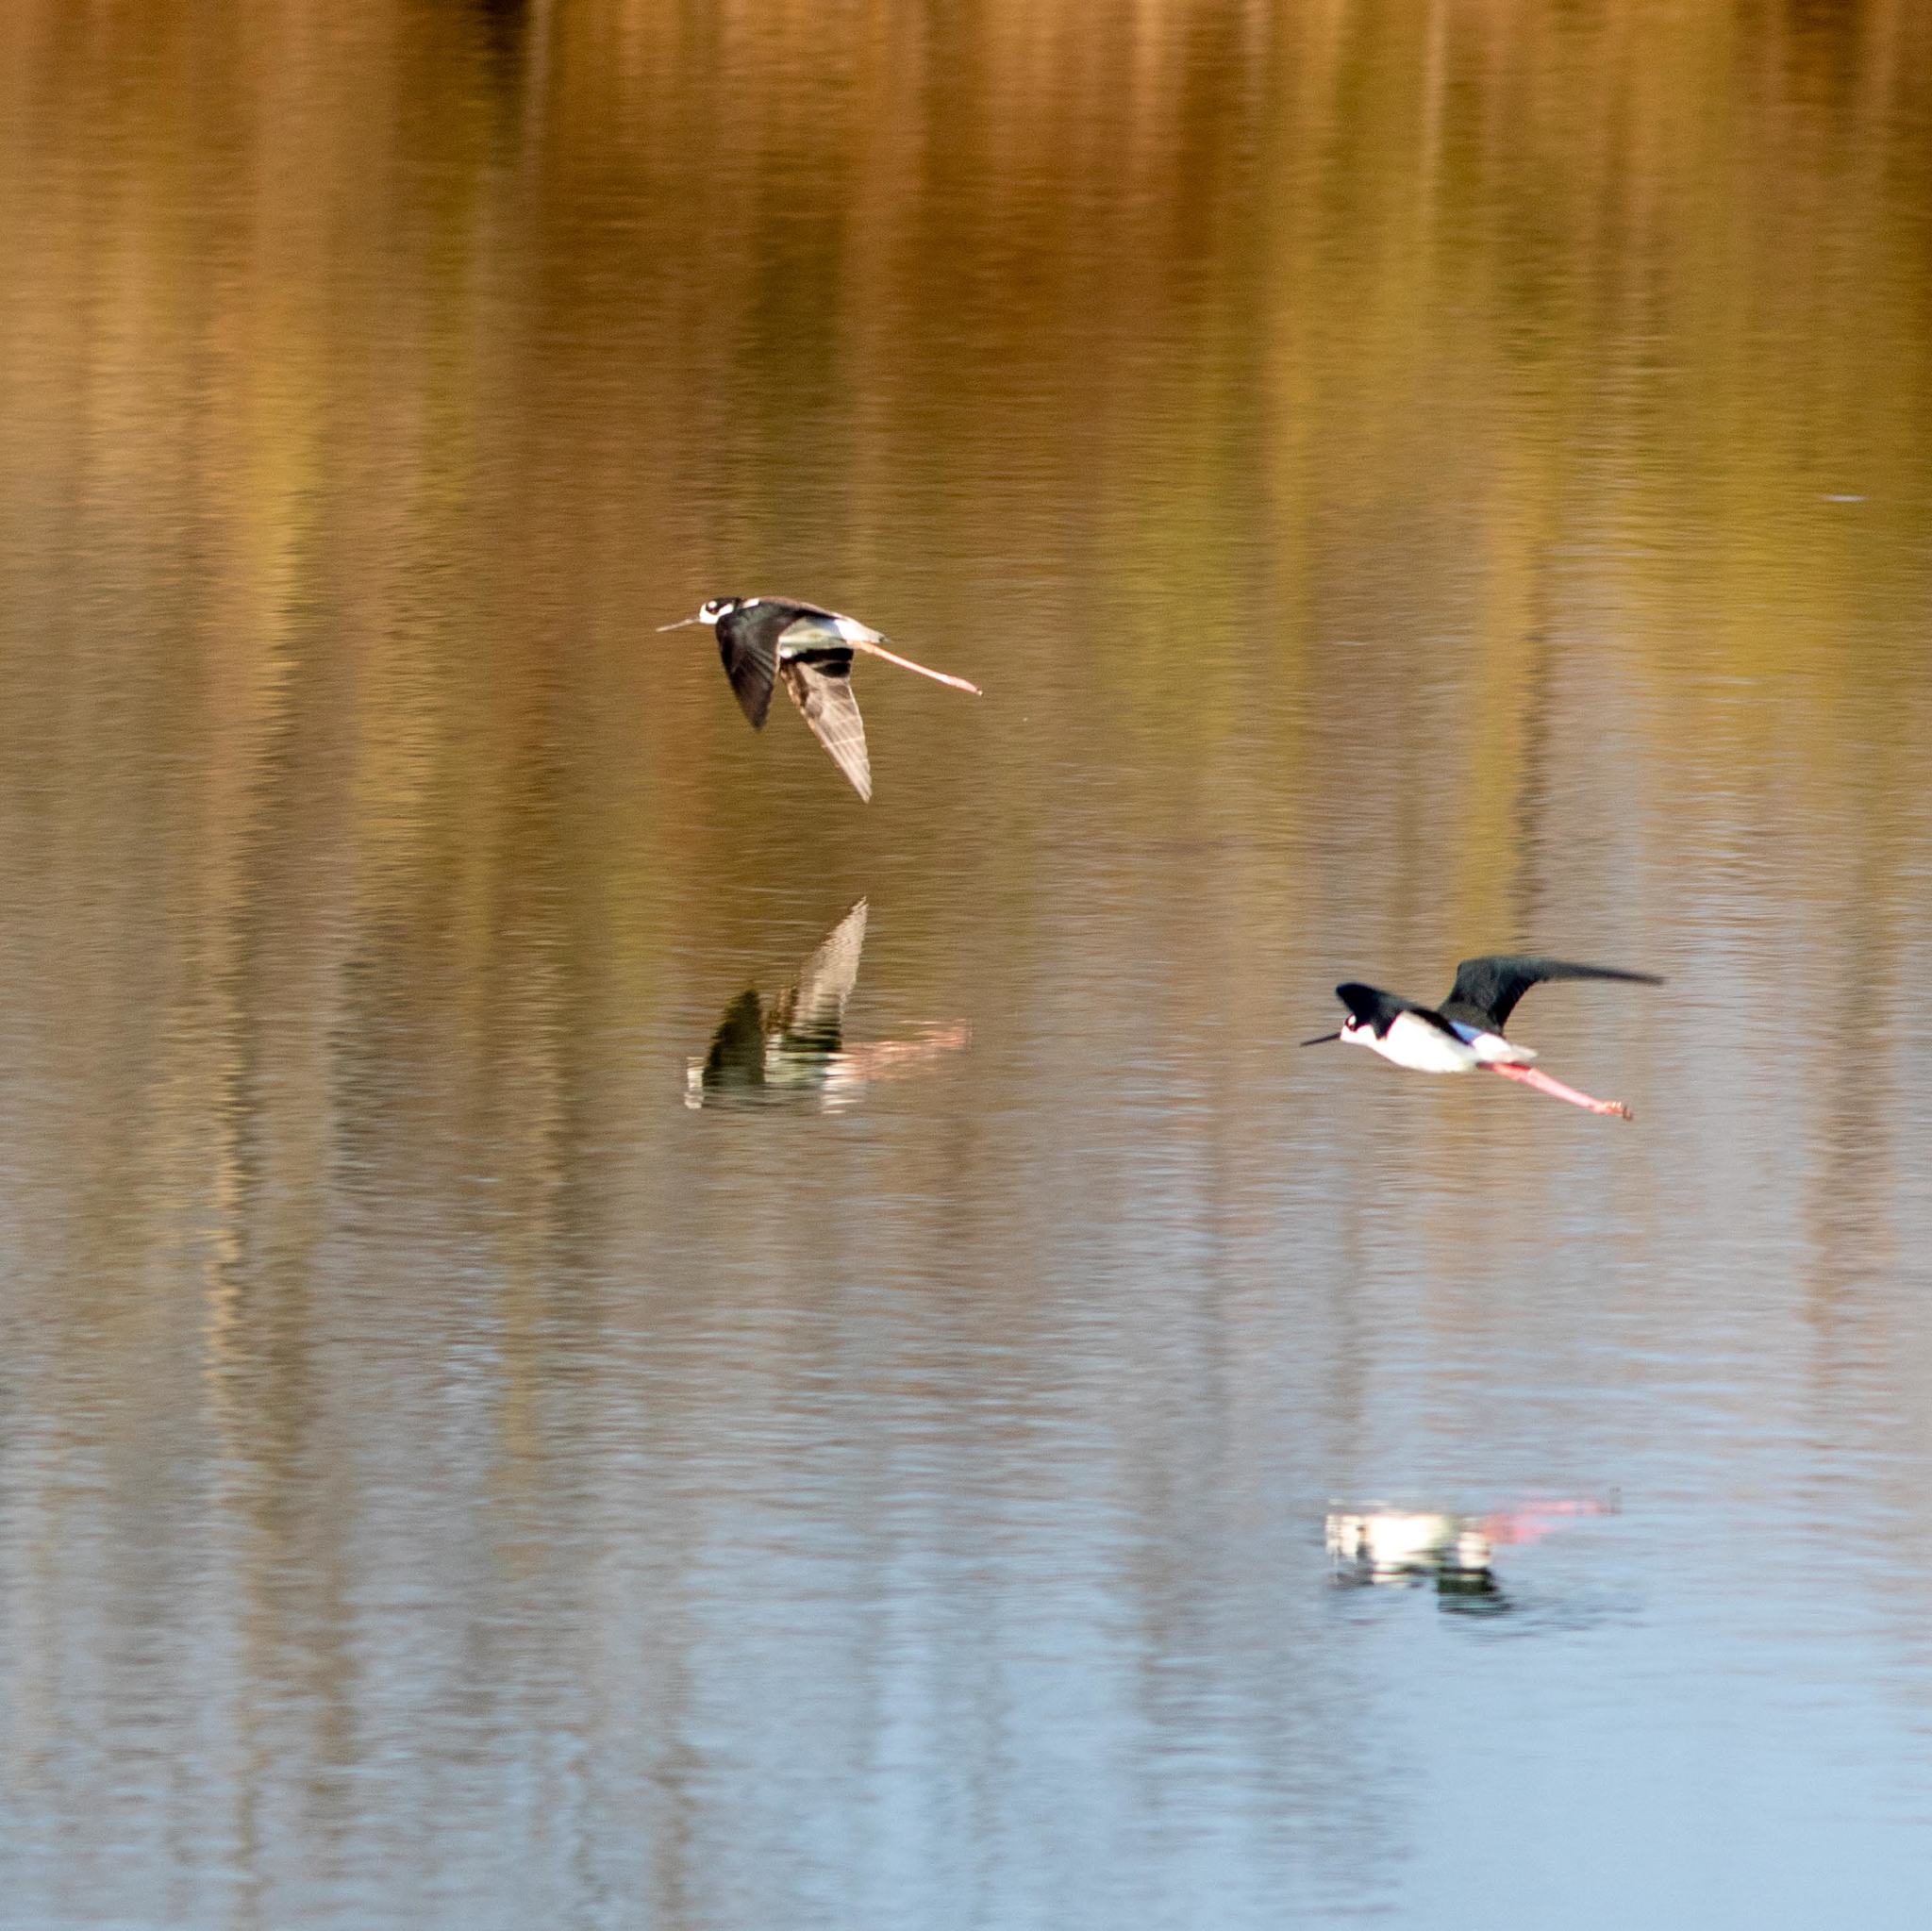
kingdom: Animalia
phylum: Chordata
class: Aves
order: Charadriiformes
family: Recurvirostridae
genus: Himantopus
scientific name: Himantopus mexicanus
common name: Black-necked stilt
